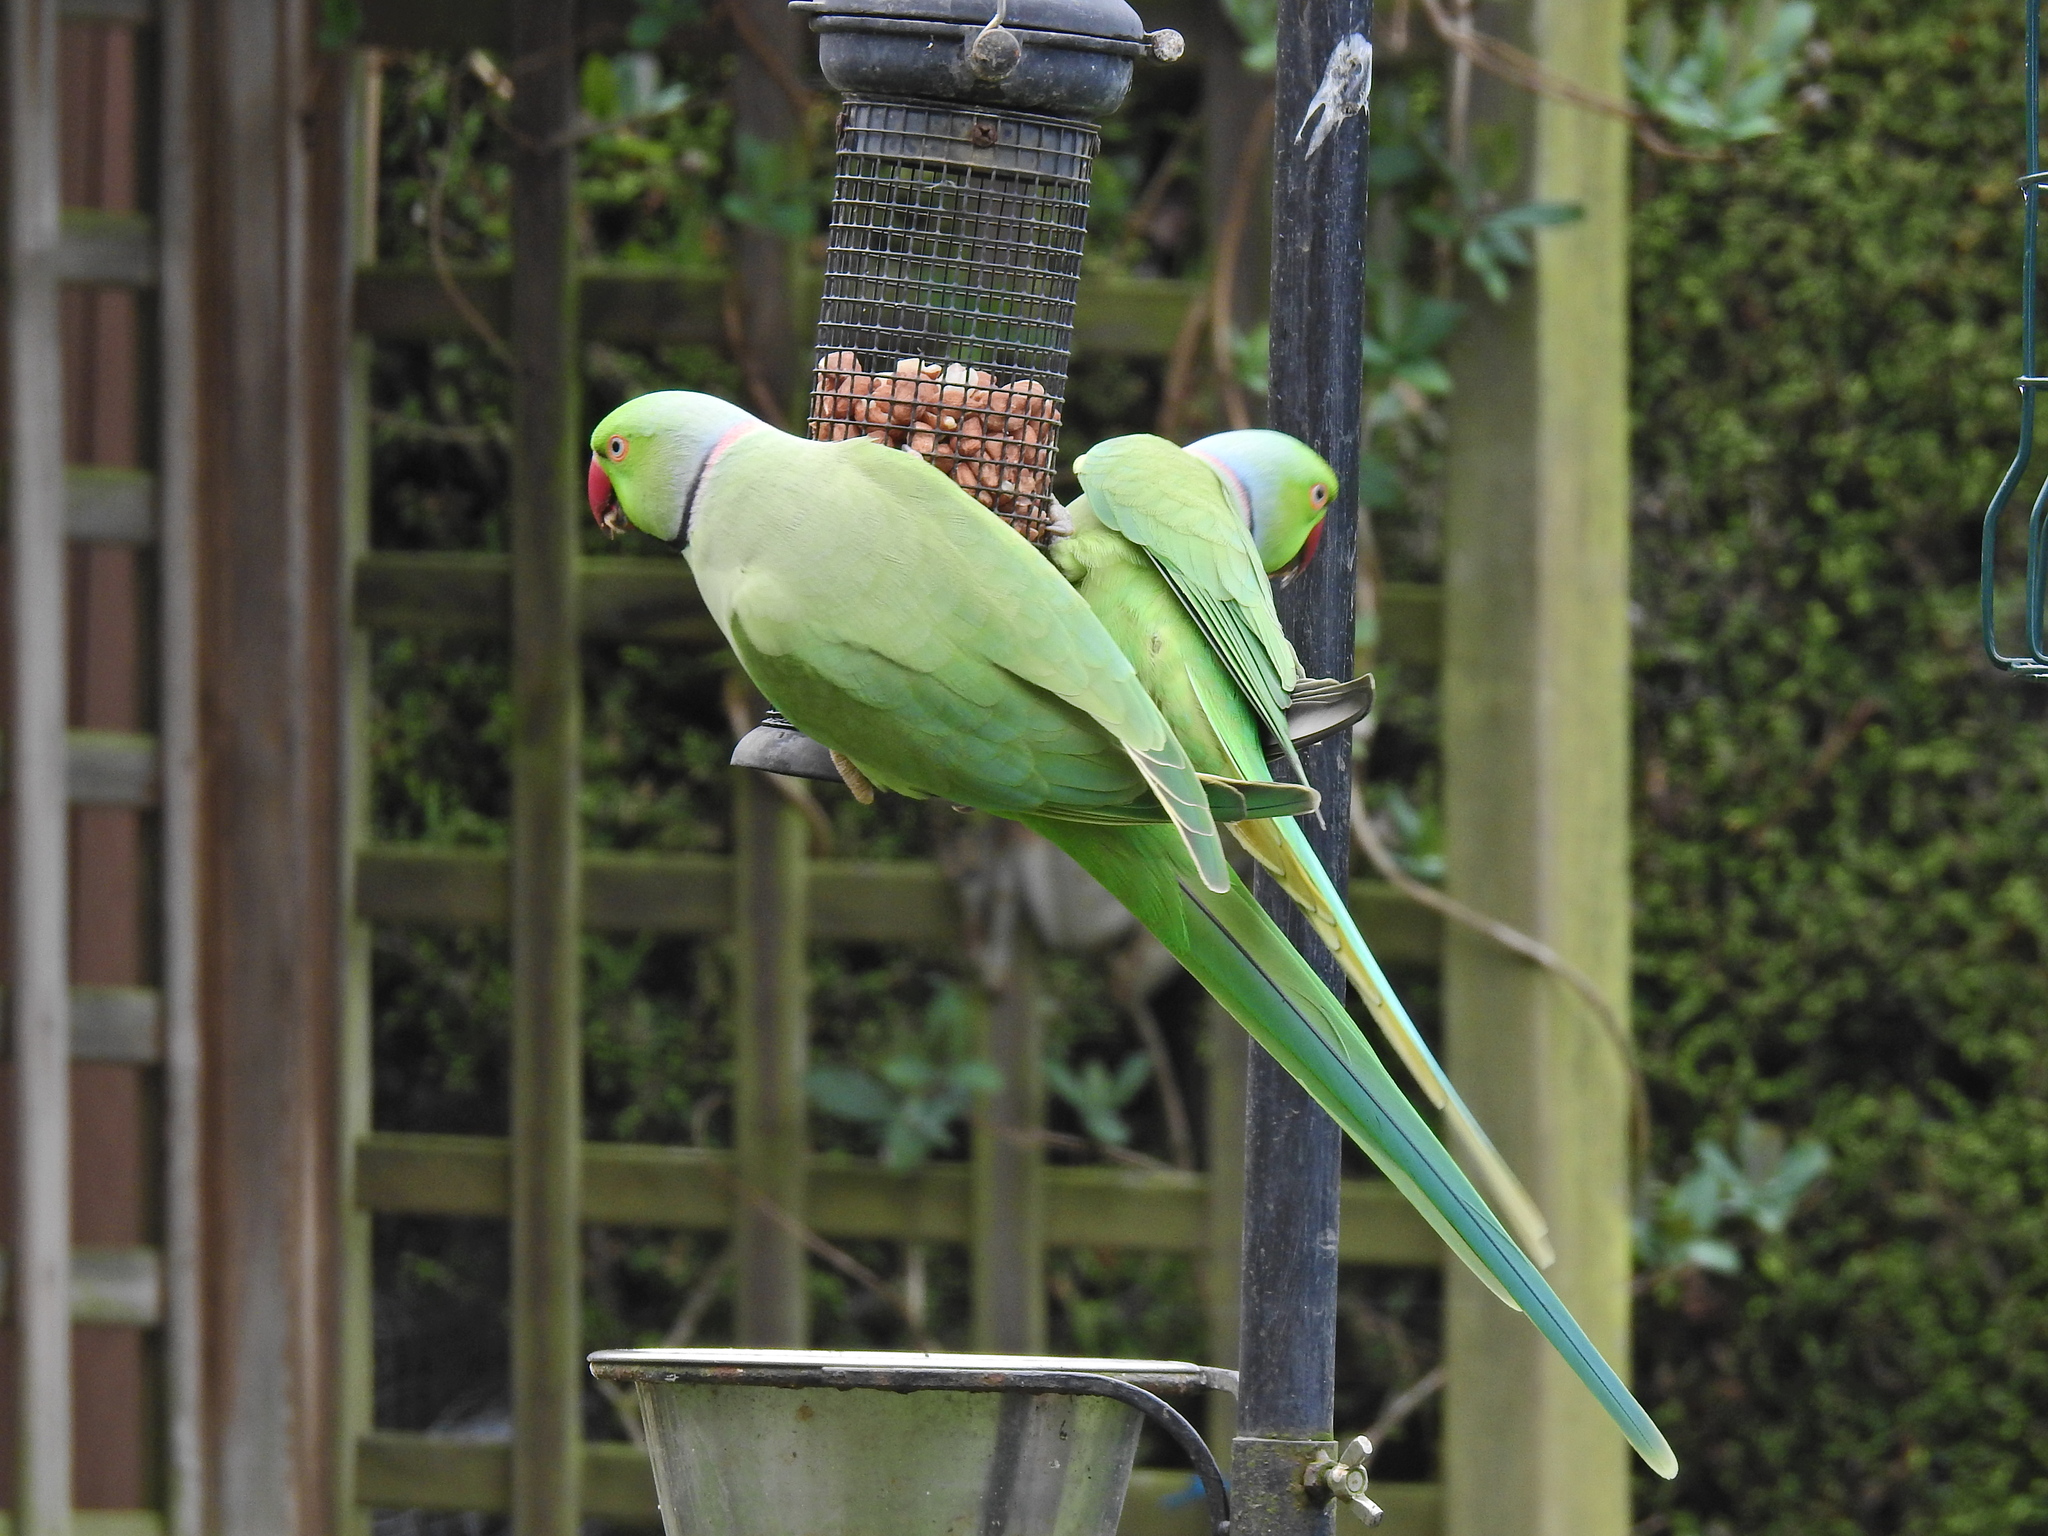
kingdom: Animalia
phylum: Chordata
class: Aves
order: Psittaciformes
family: Psittacidae
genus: Psittacula
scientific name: Psittacula krameri
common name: Rose-ringed parakeet
